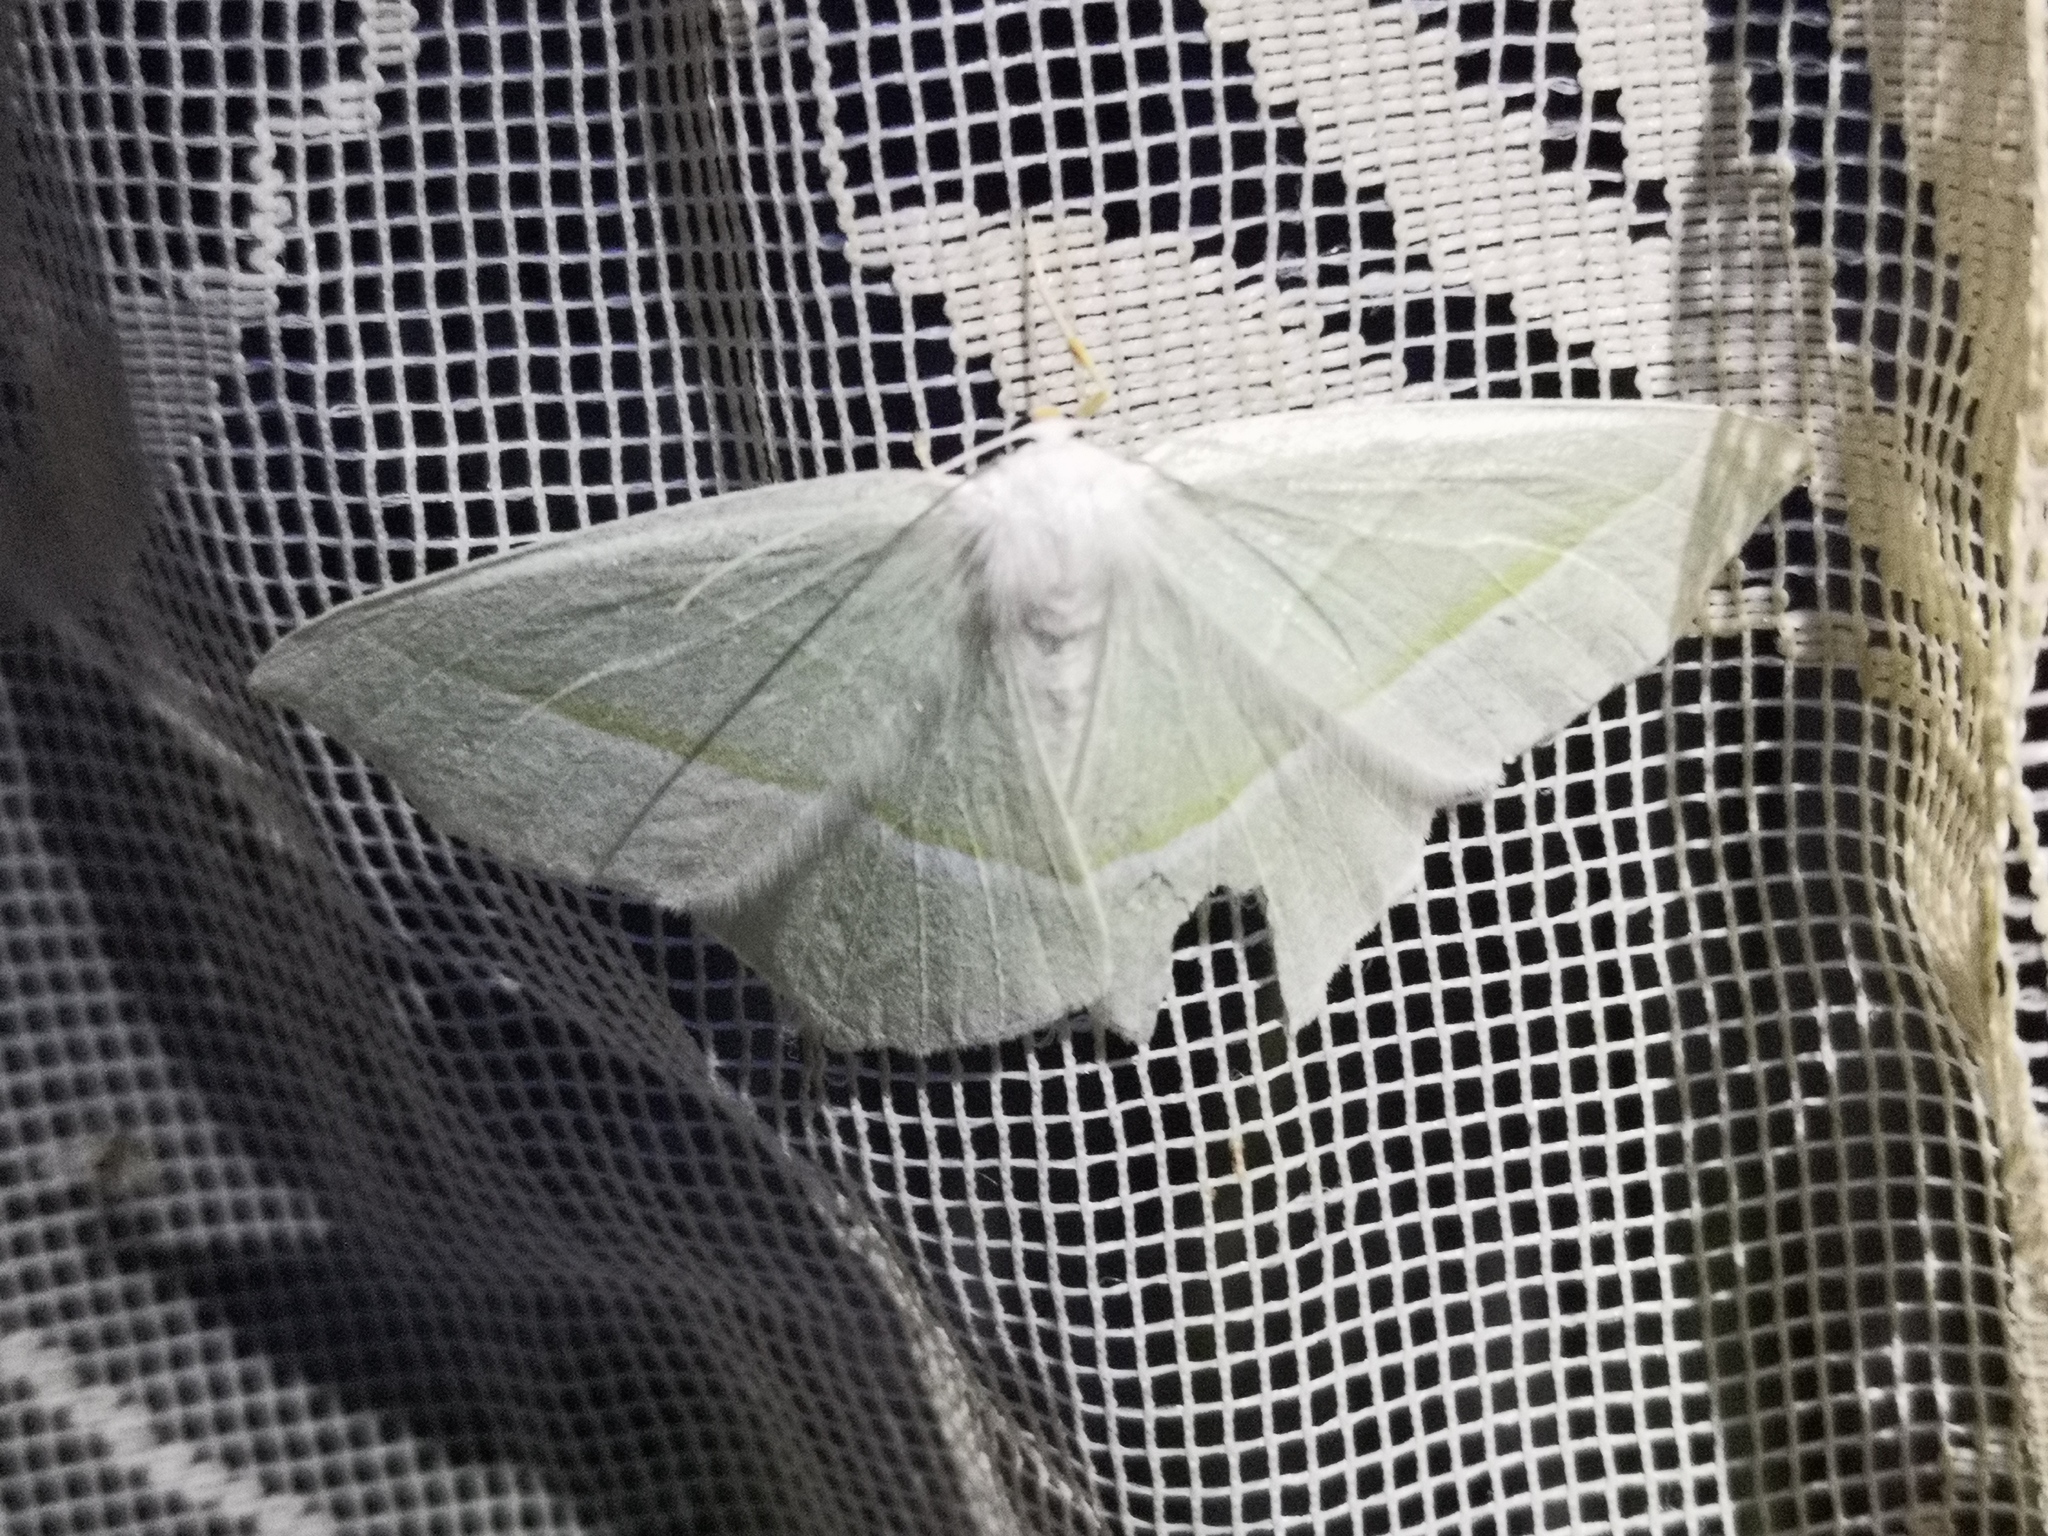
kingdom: Animalia
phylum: Arthropoda
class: Insecta
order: Lepidoptera
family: Geometridae
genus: Campaea
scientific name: Campaea margaritaria
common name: Light emerald
